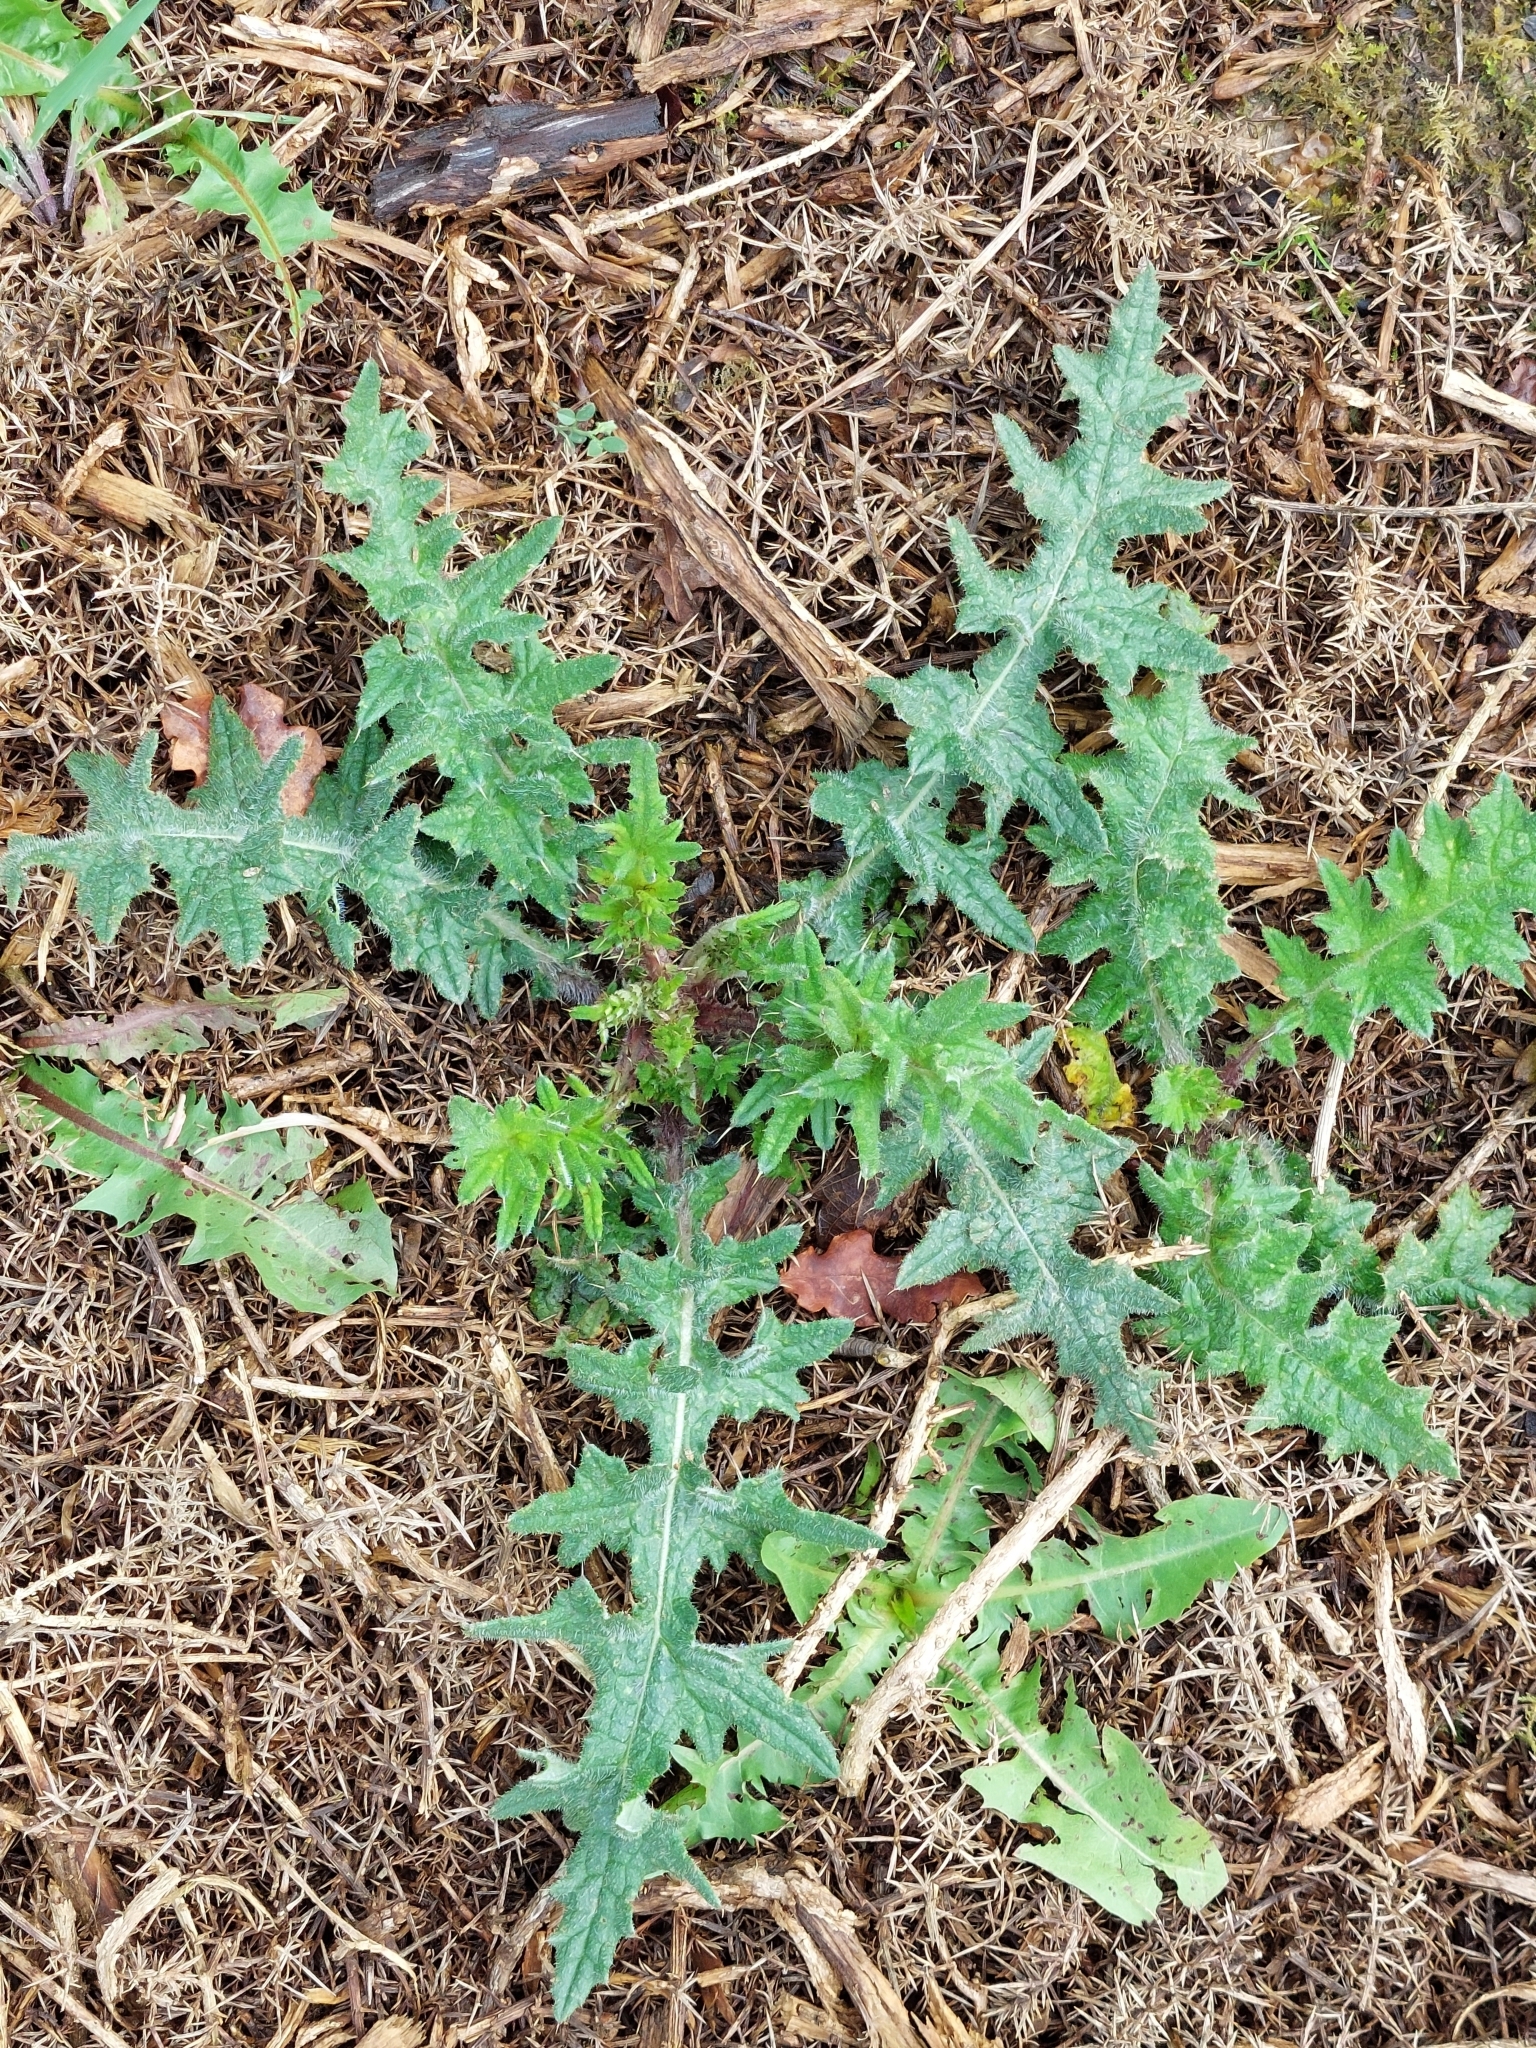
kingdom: Plantae
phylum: Tracheophyta
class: Magnoliopsida
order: Asterales
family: Asteraceae
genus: Cirsium
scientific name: Cirsium vulgare
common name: Bull thistle
